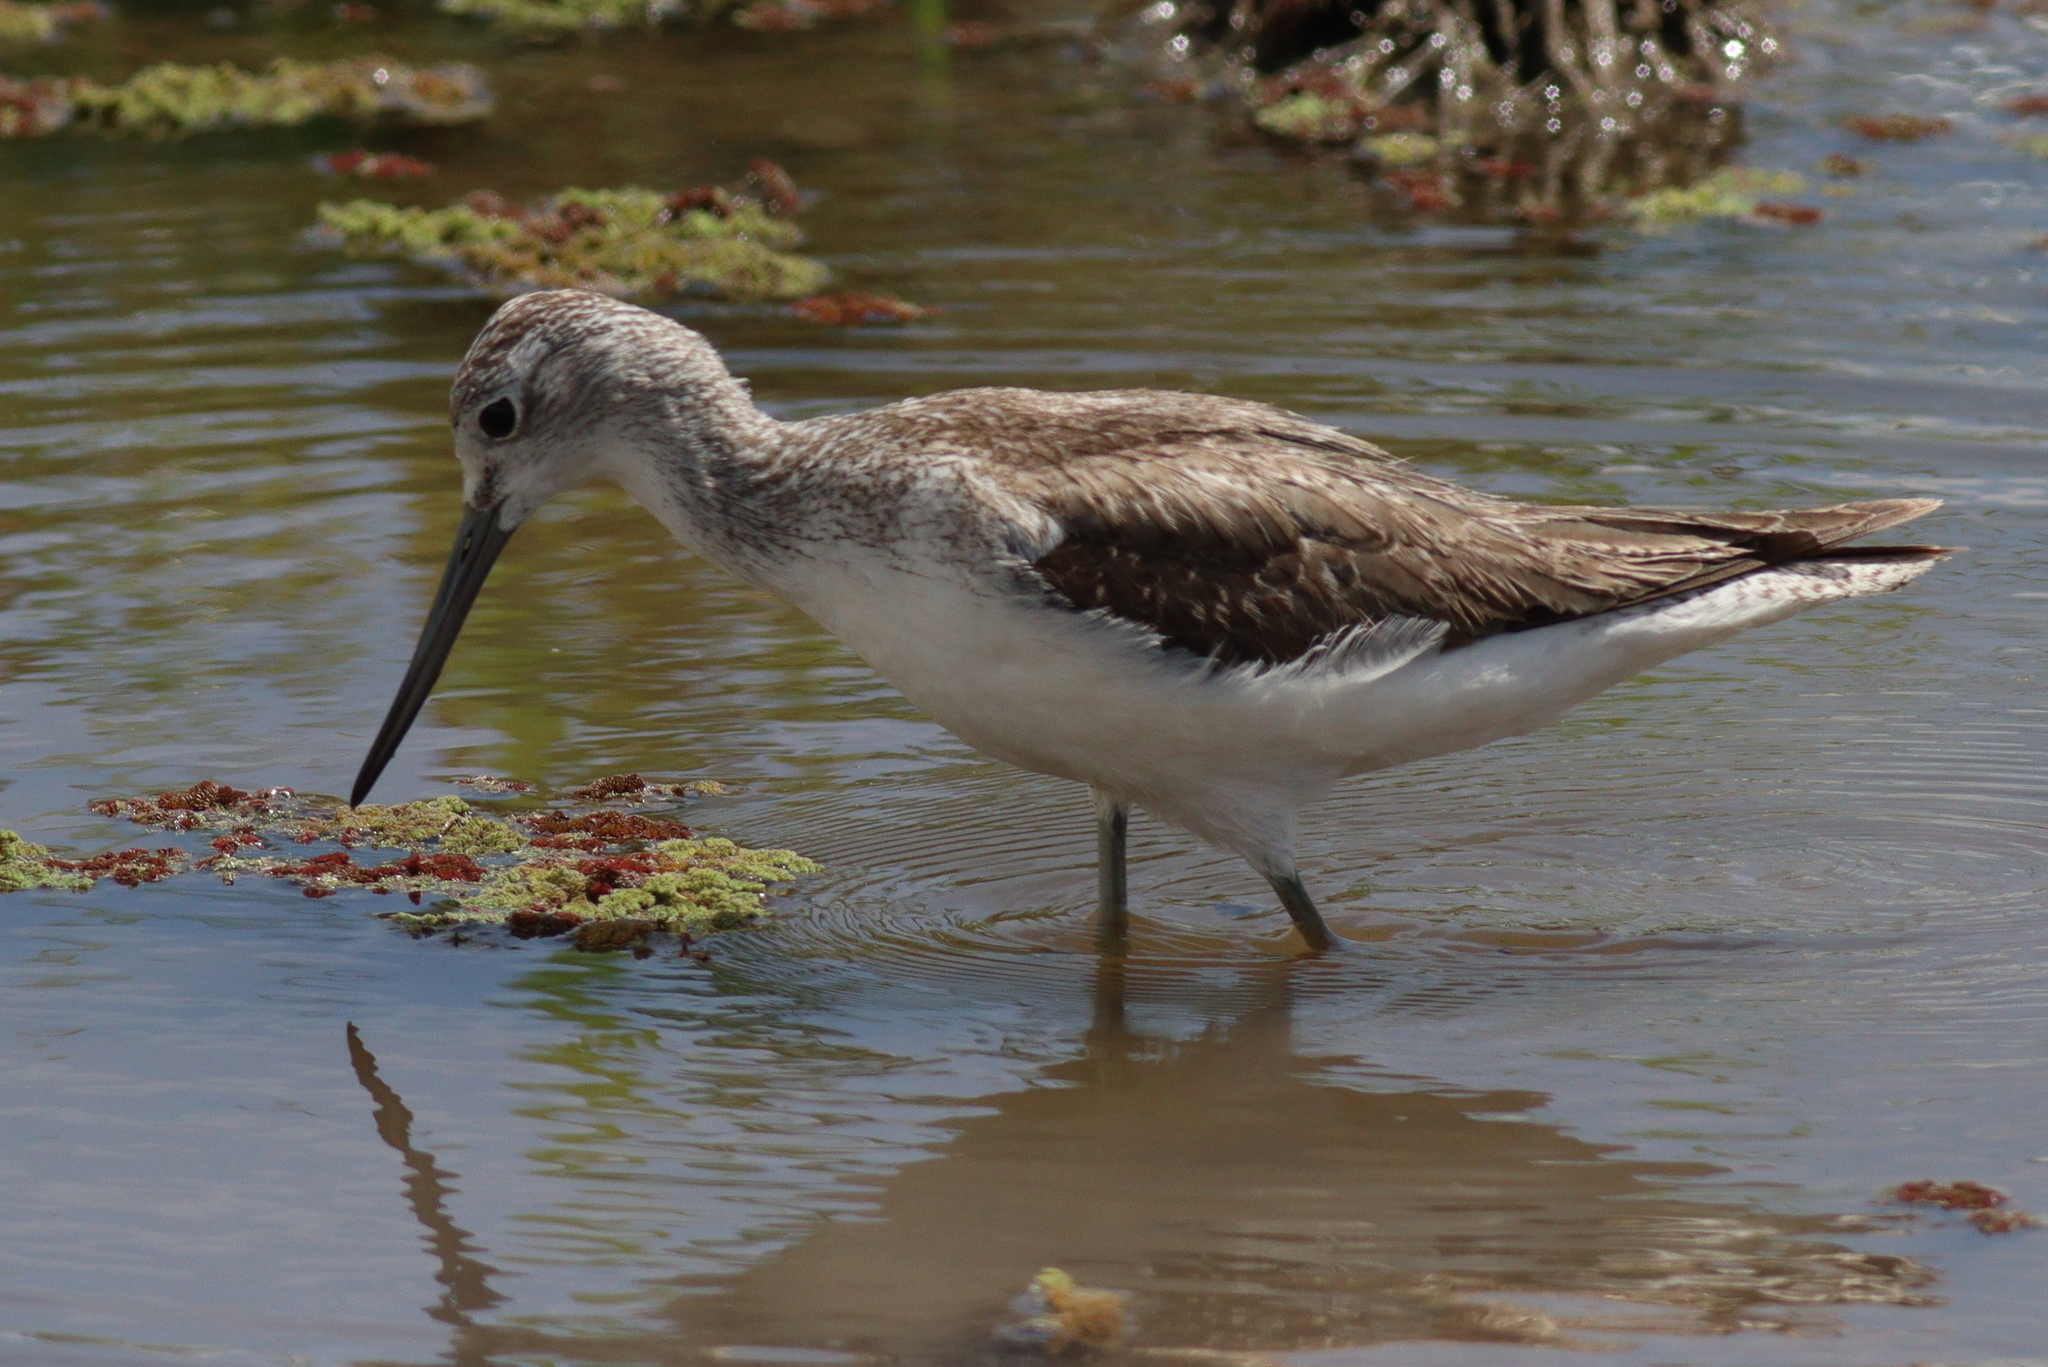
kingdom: Animalia
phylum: Chordata
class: Aves
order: Charadriiformes
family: Scolopacidae
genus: Tringa
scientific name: Tringa nebularia
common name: Common greenshank
